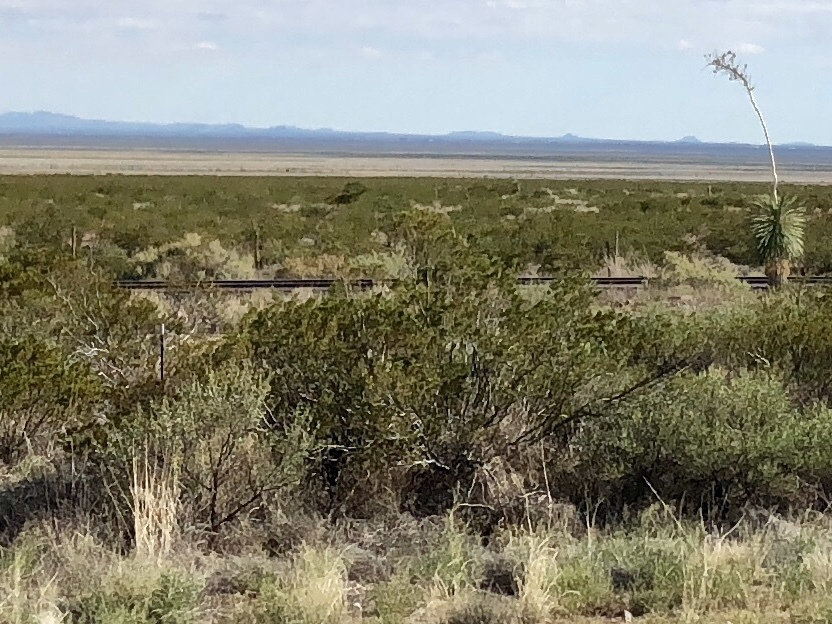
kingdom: Plantae
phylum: Tracheophyta
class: Magnoliopsida
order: Zygophyllales
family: Zygophyllaceae
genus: Larrea
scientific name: Larrea tridentata
